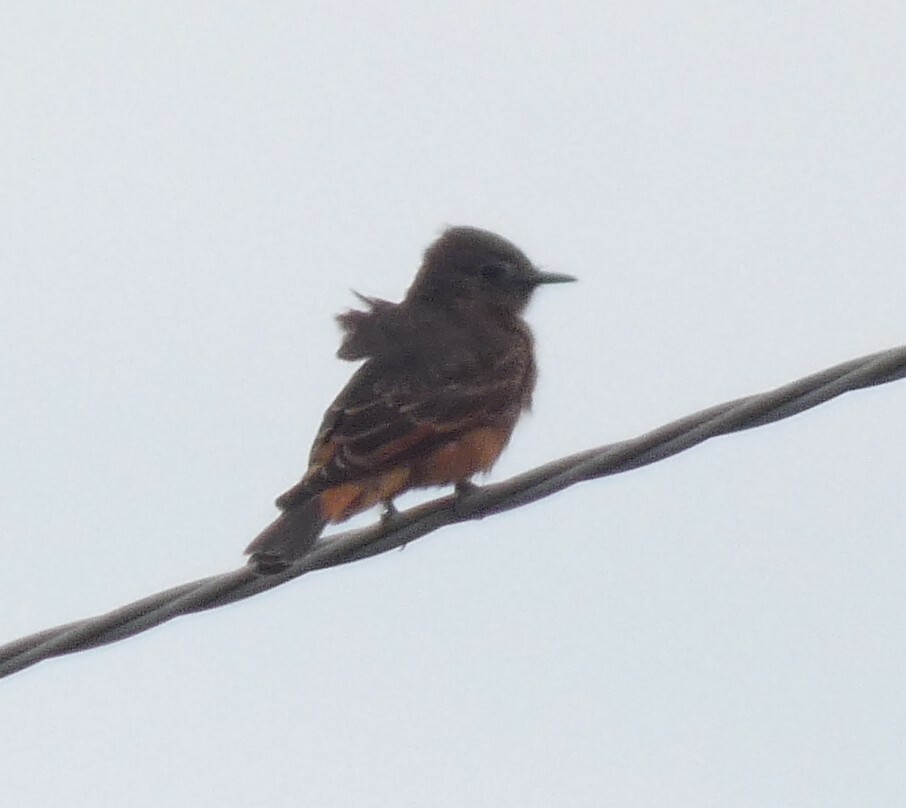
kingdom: Animalia
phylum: Chordata
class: Aves
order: Passeriformes
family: Tyrannidae
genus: Hirundinea
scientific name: Hirundinea ferruginea
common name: Cliff flycatcher
